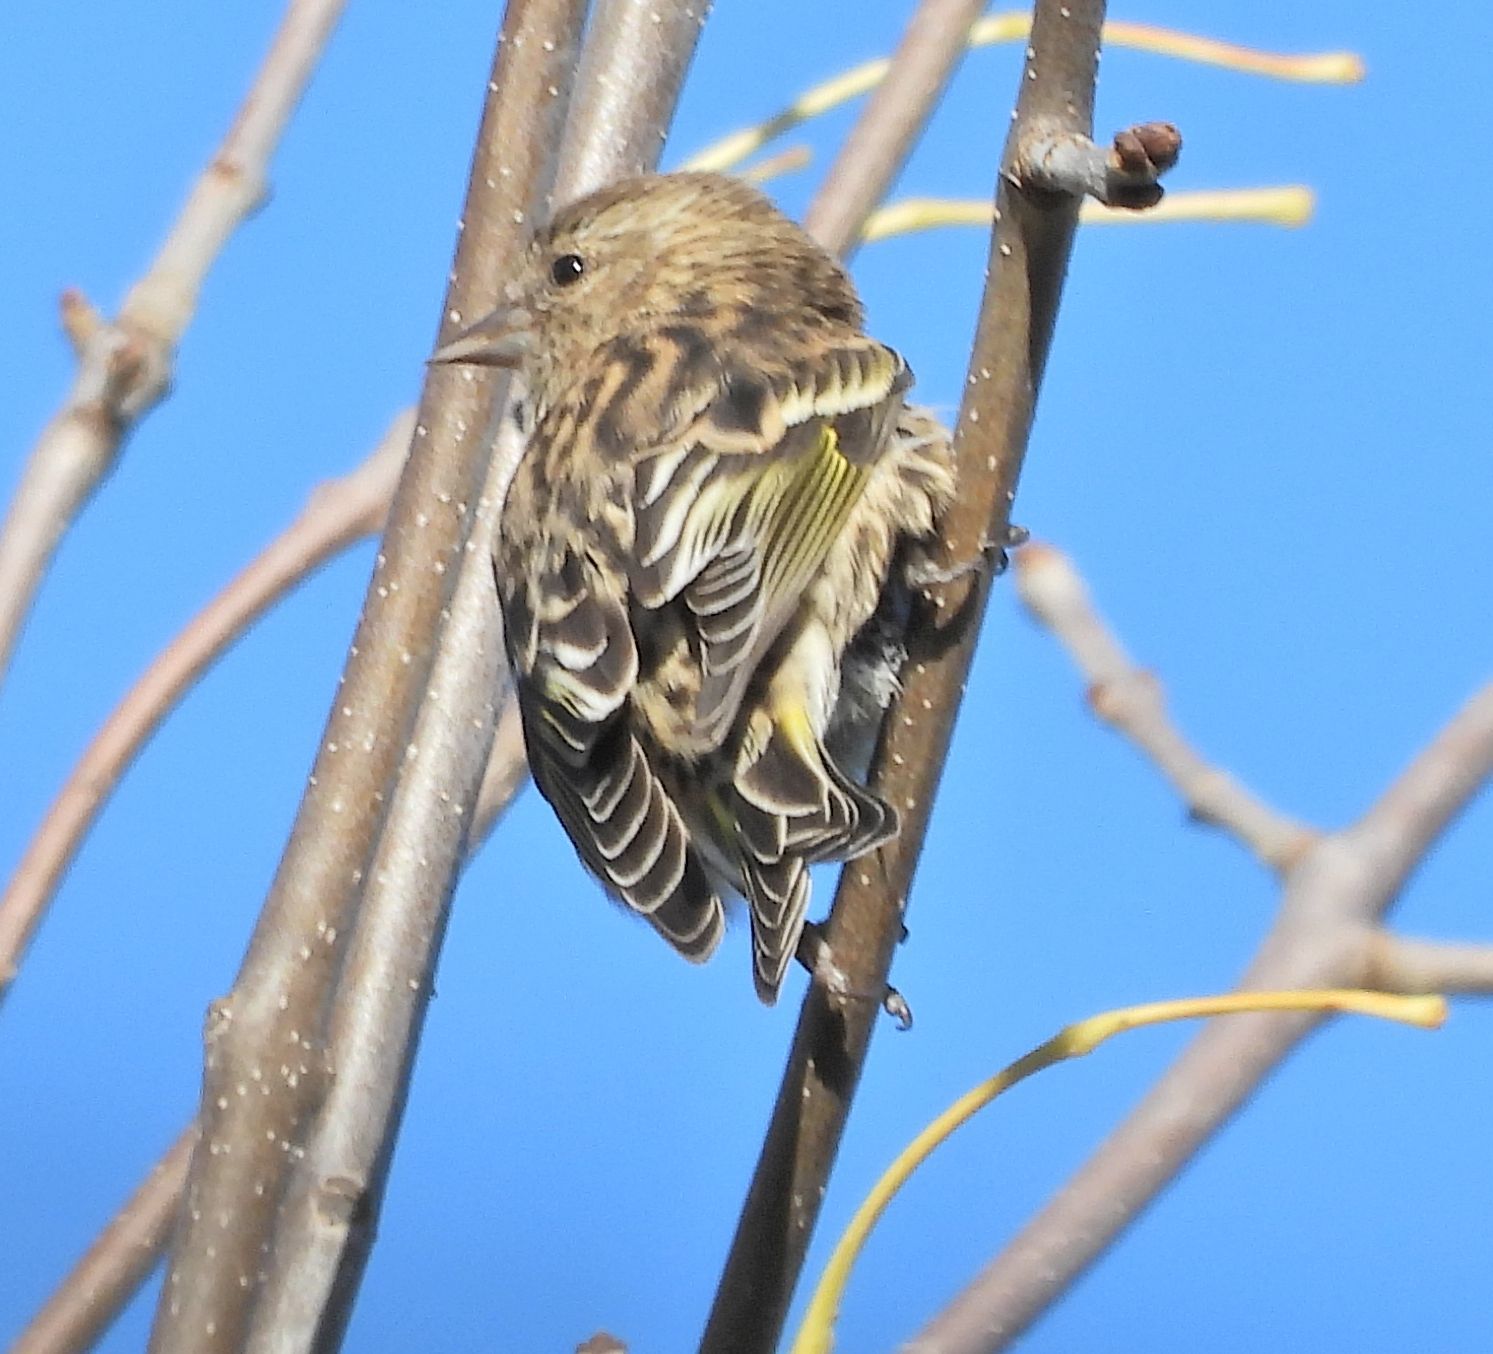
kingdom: Animalia
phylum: Chordata
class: Aves
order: Passeriformes
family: Fringillidae
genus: Spinus
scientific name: Spinus pinus
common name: Pine siskin
